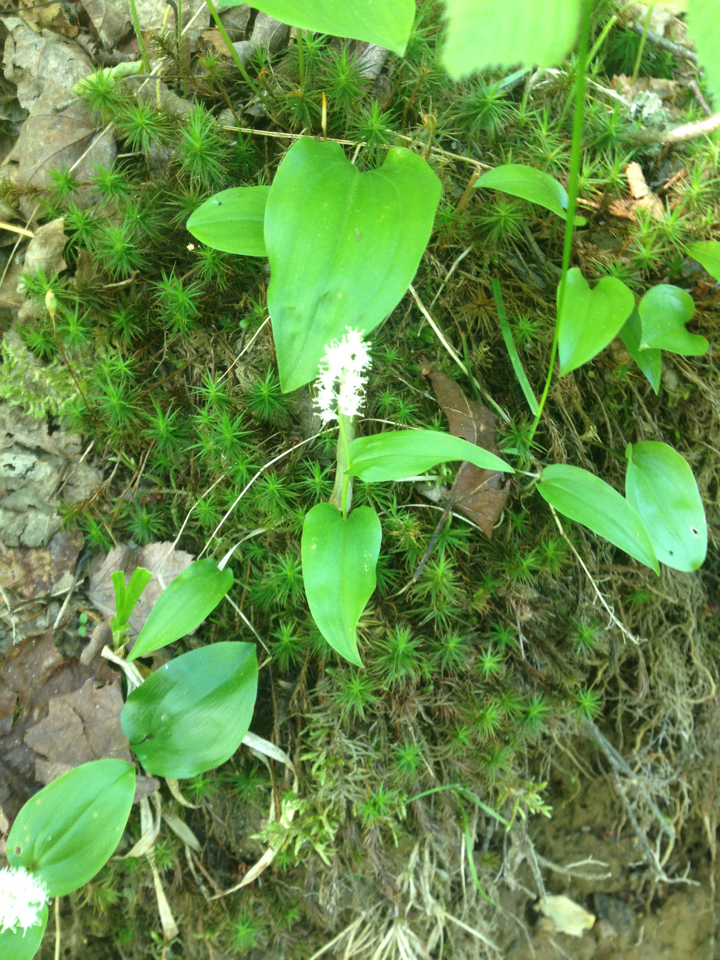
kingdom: Plantae
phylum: Tracheophyta
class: Liliopsida
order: Asparagales
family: Asparagaceae
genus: Maianthemum
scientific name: Maianthemum canadense
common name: False lily-of-the-valley
